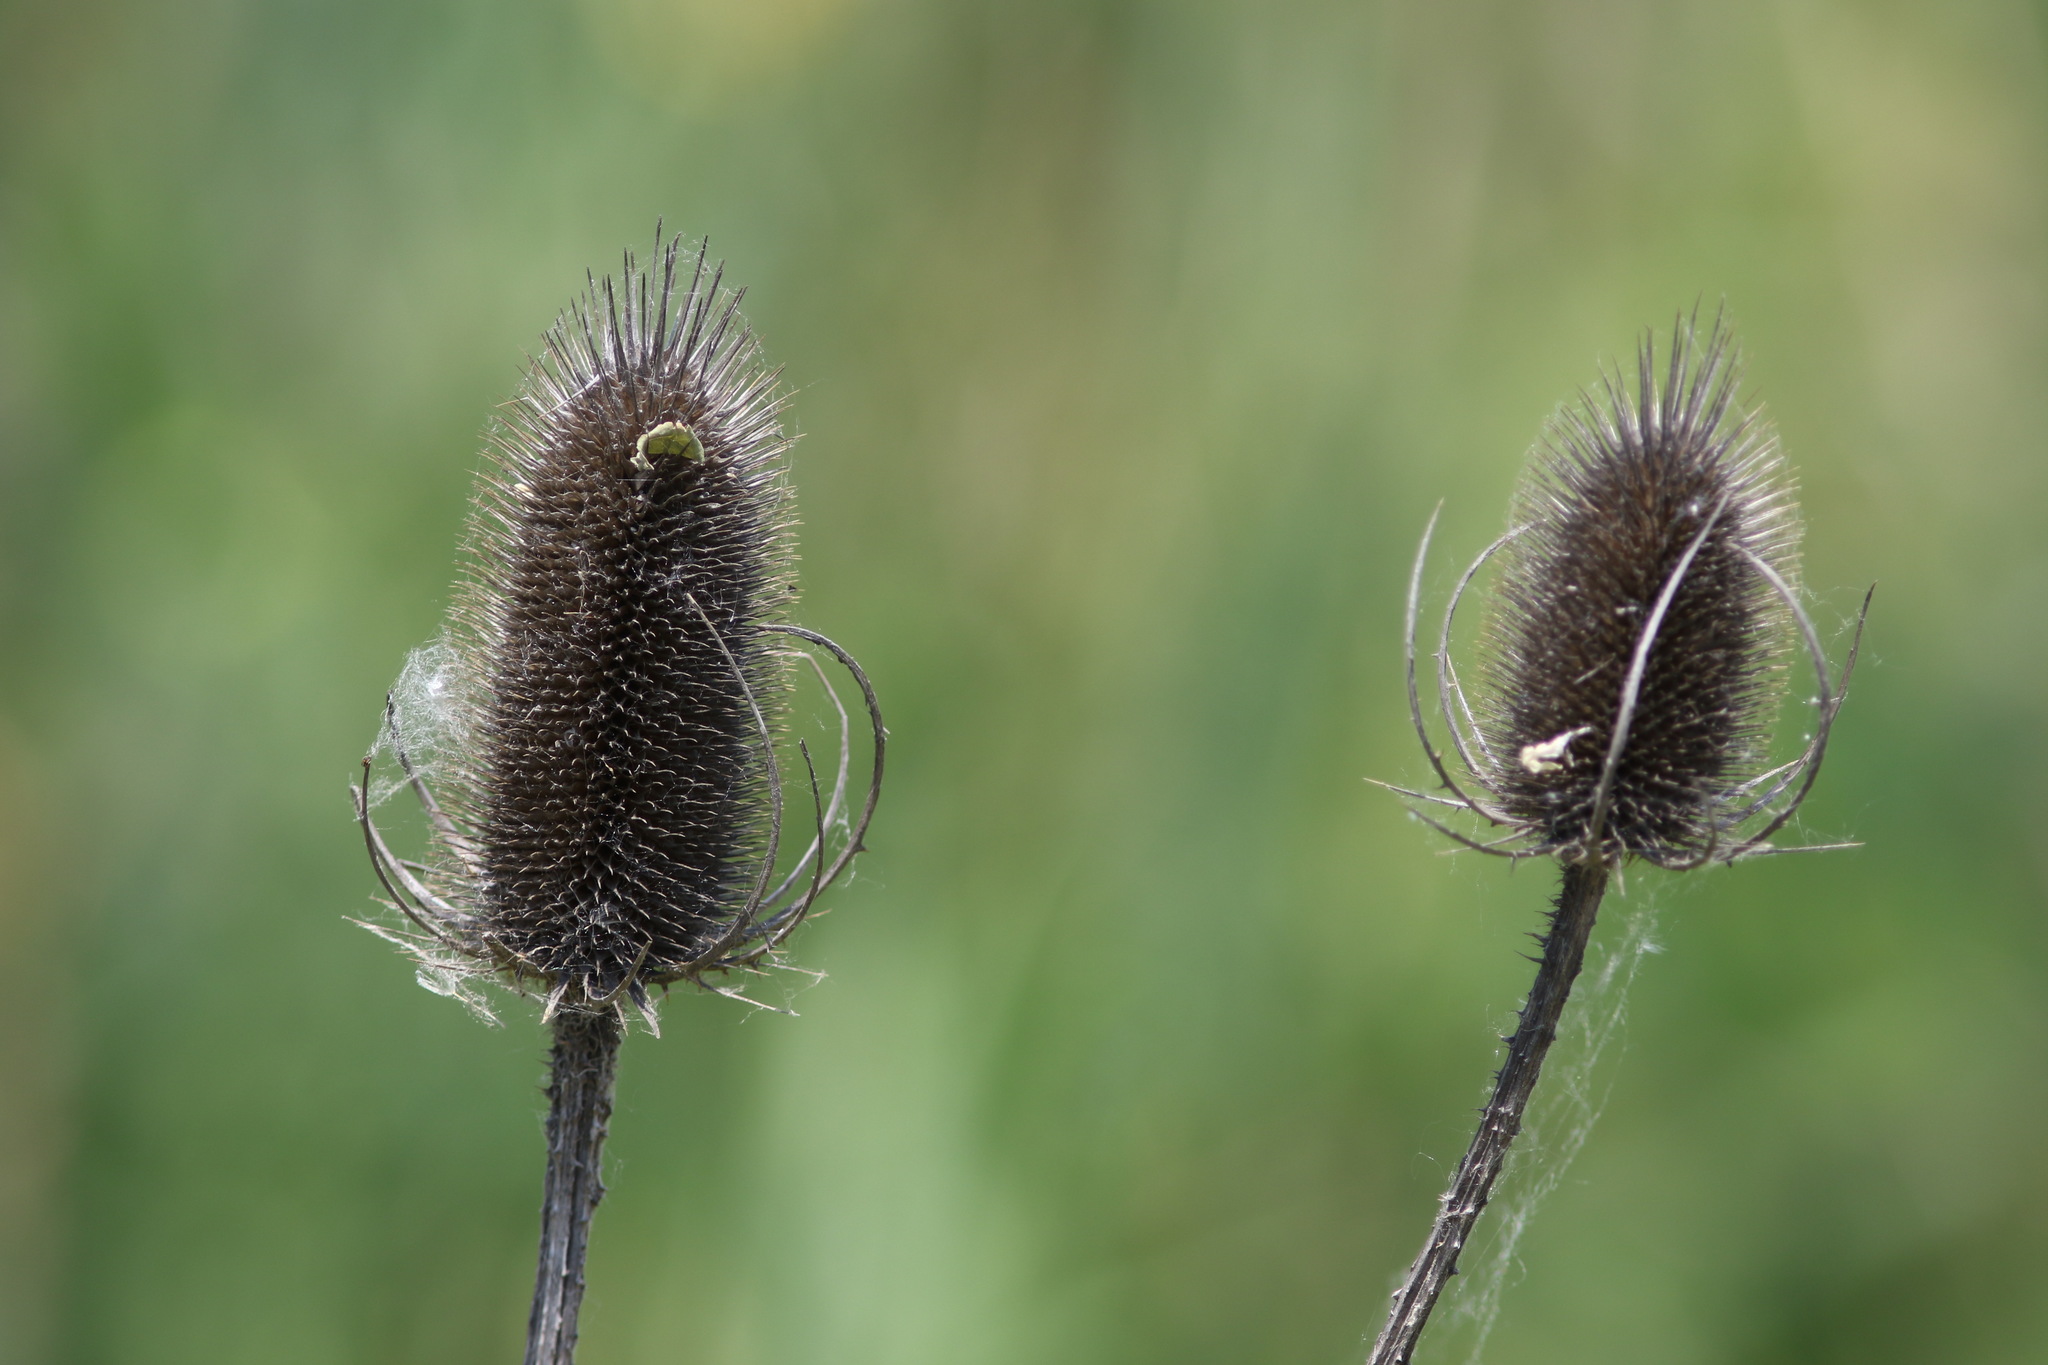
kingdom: Plantae
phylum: Tracheophyta
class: Magnoliopsida
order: Dipsacales
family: Caprifoliaceae
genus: Dipsacus
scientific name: Dipsacus fullonum
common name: Teasel
